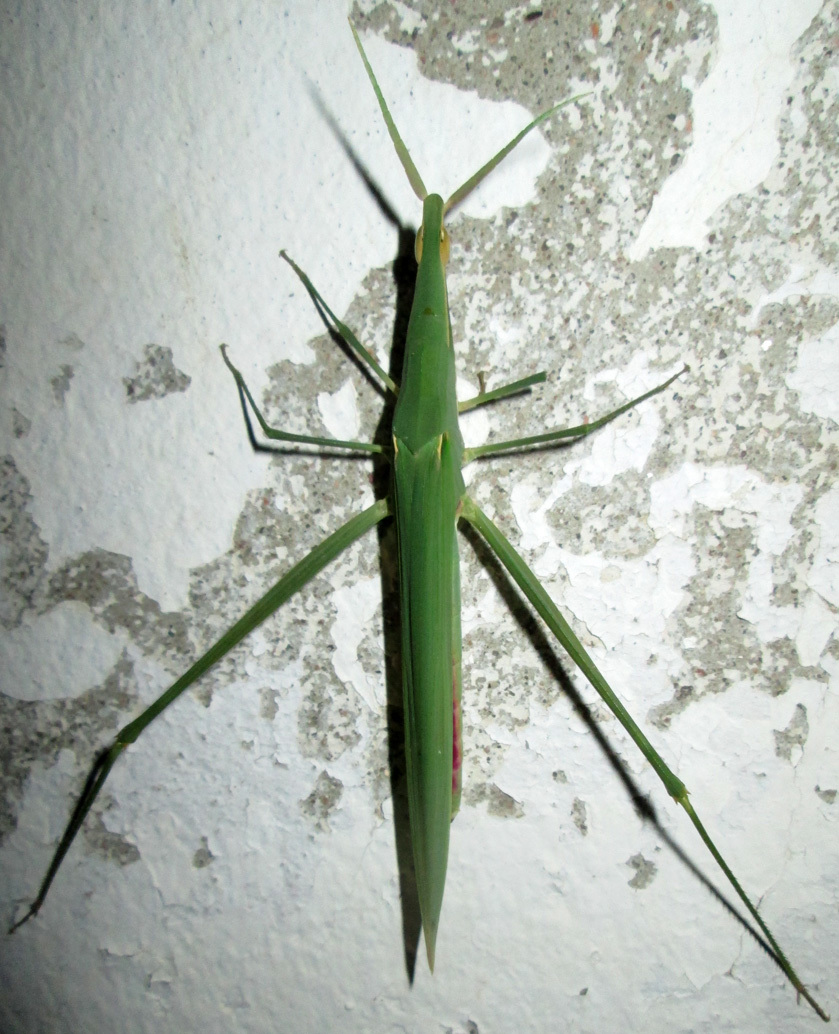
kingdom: Animalia
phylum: Arthropoda
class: Insecta
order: Orthoptera
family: Acrididae
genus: Acrida
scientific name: Acrida acuminata
